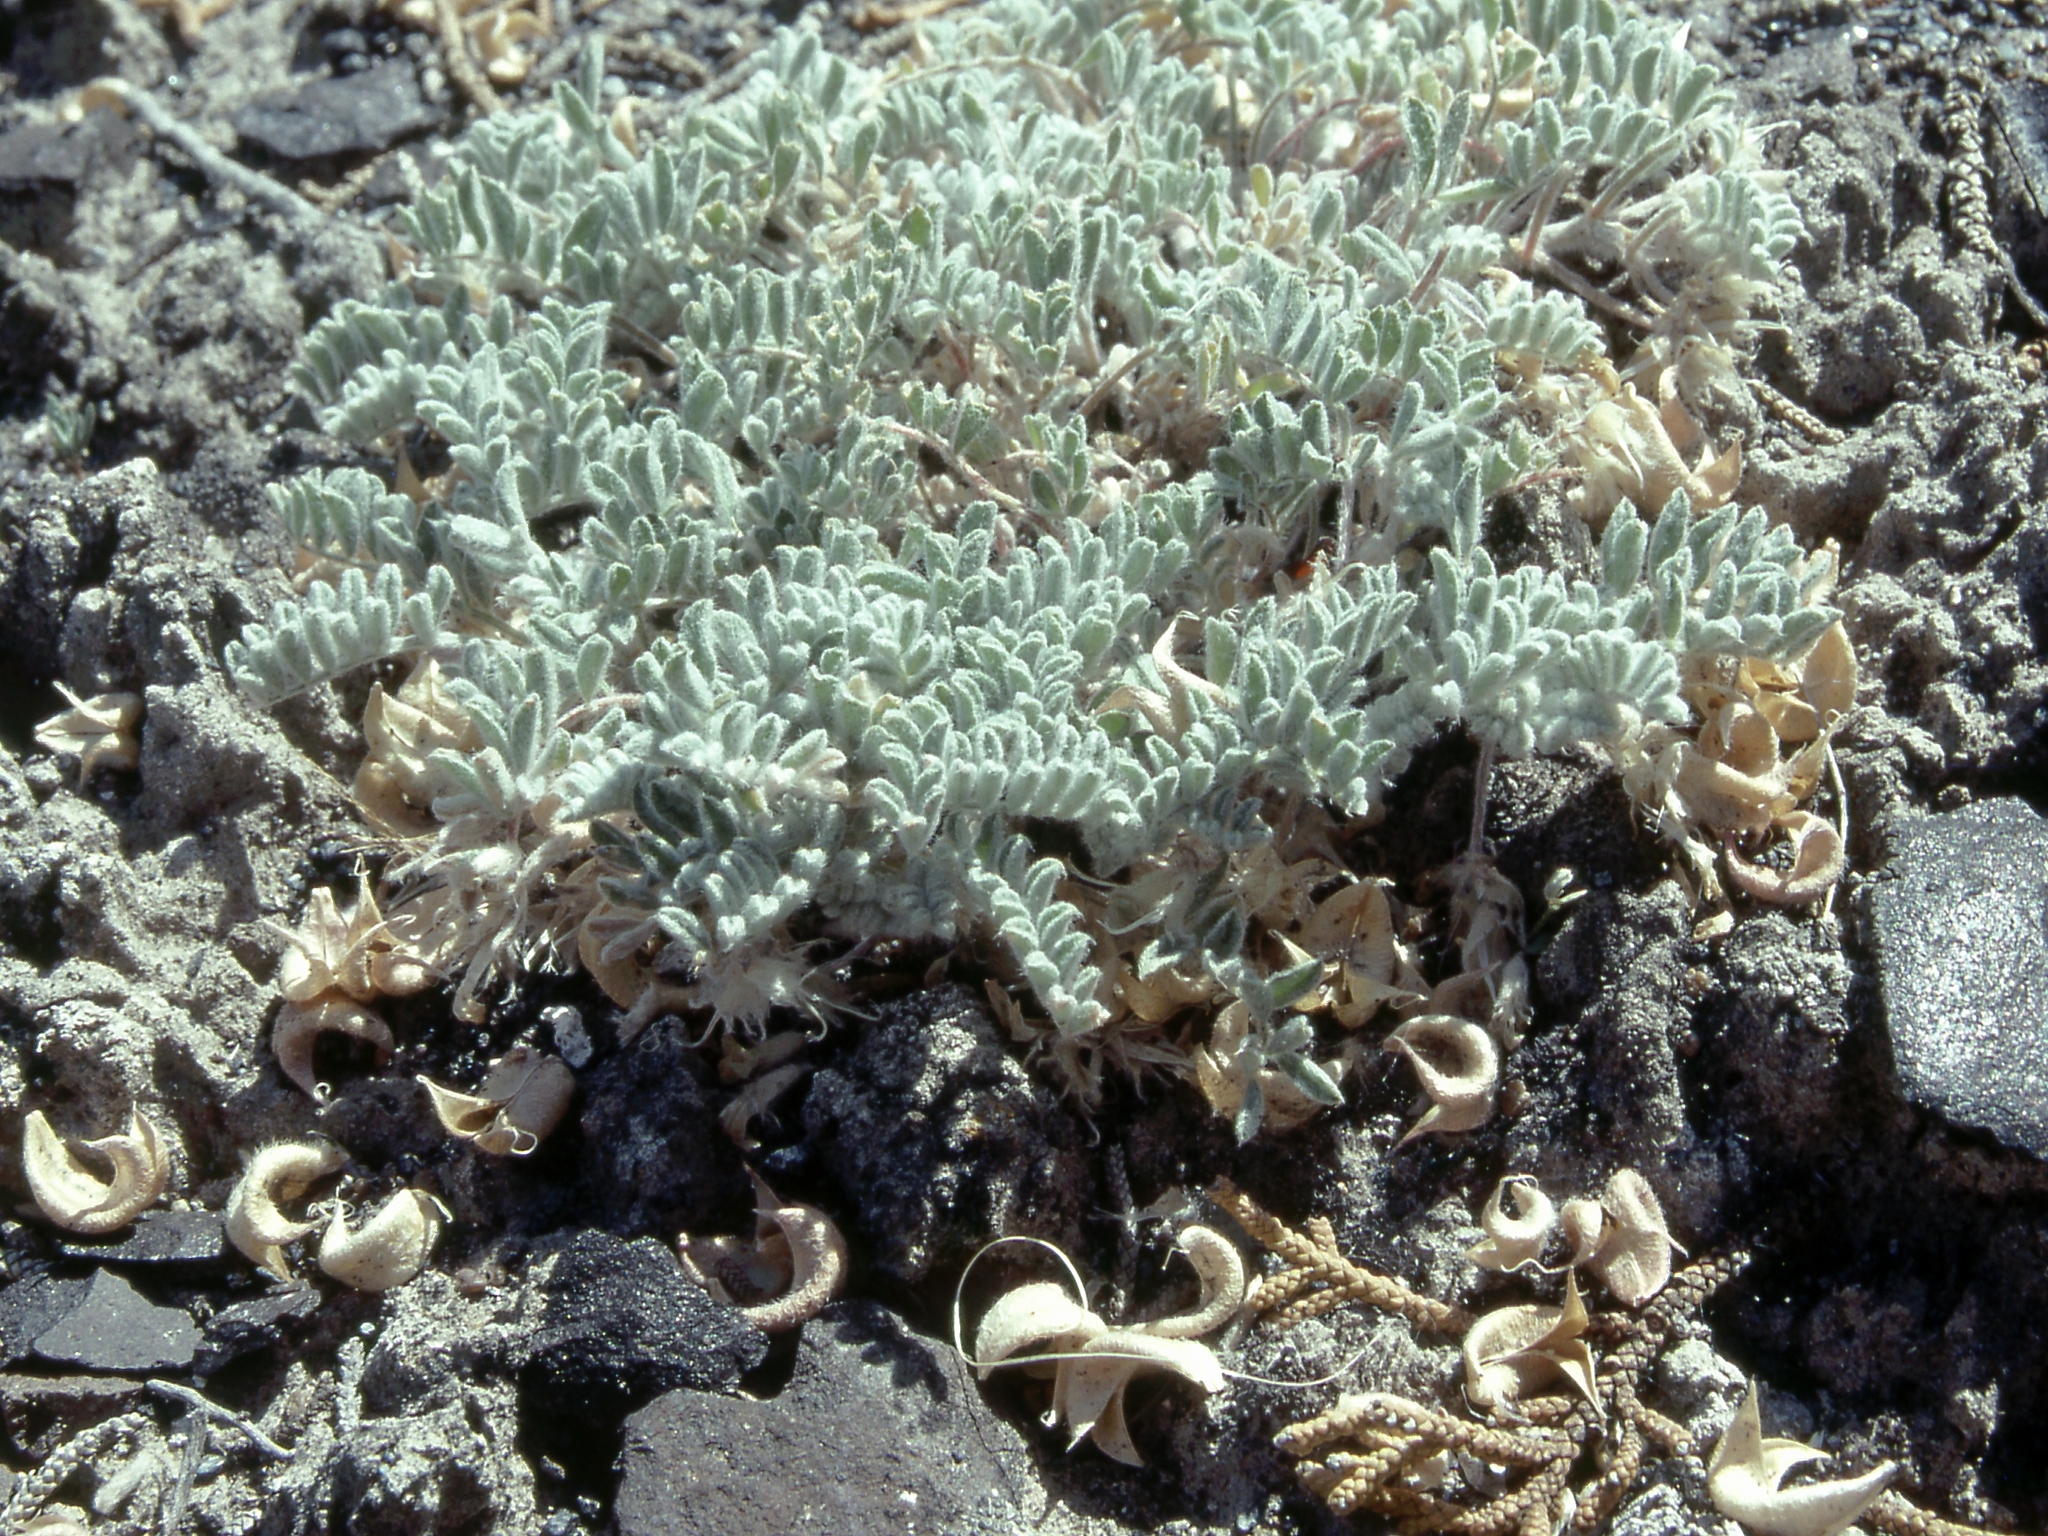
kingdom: Plantae
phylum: Tracheophyta
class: Magnoliopsida
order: Fabales
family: Fabaceae
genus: Astragalus
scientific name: Astragalus anserinus
